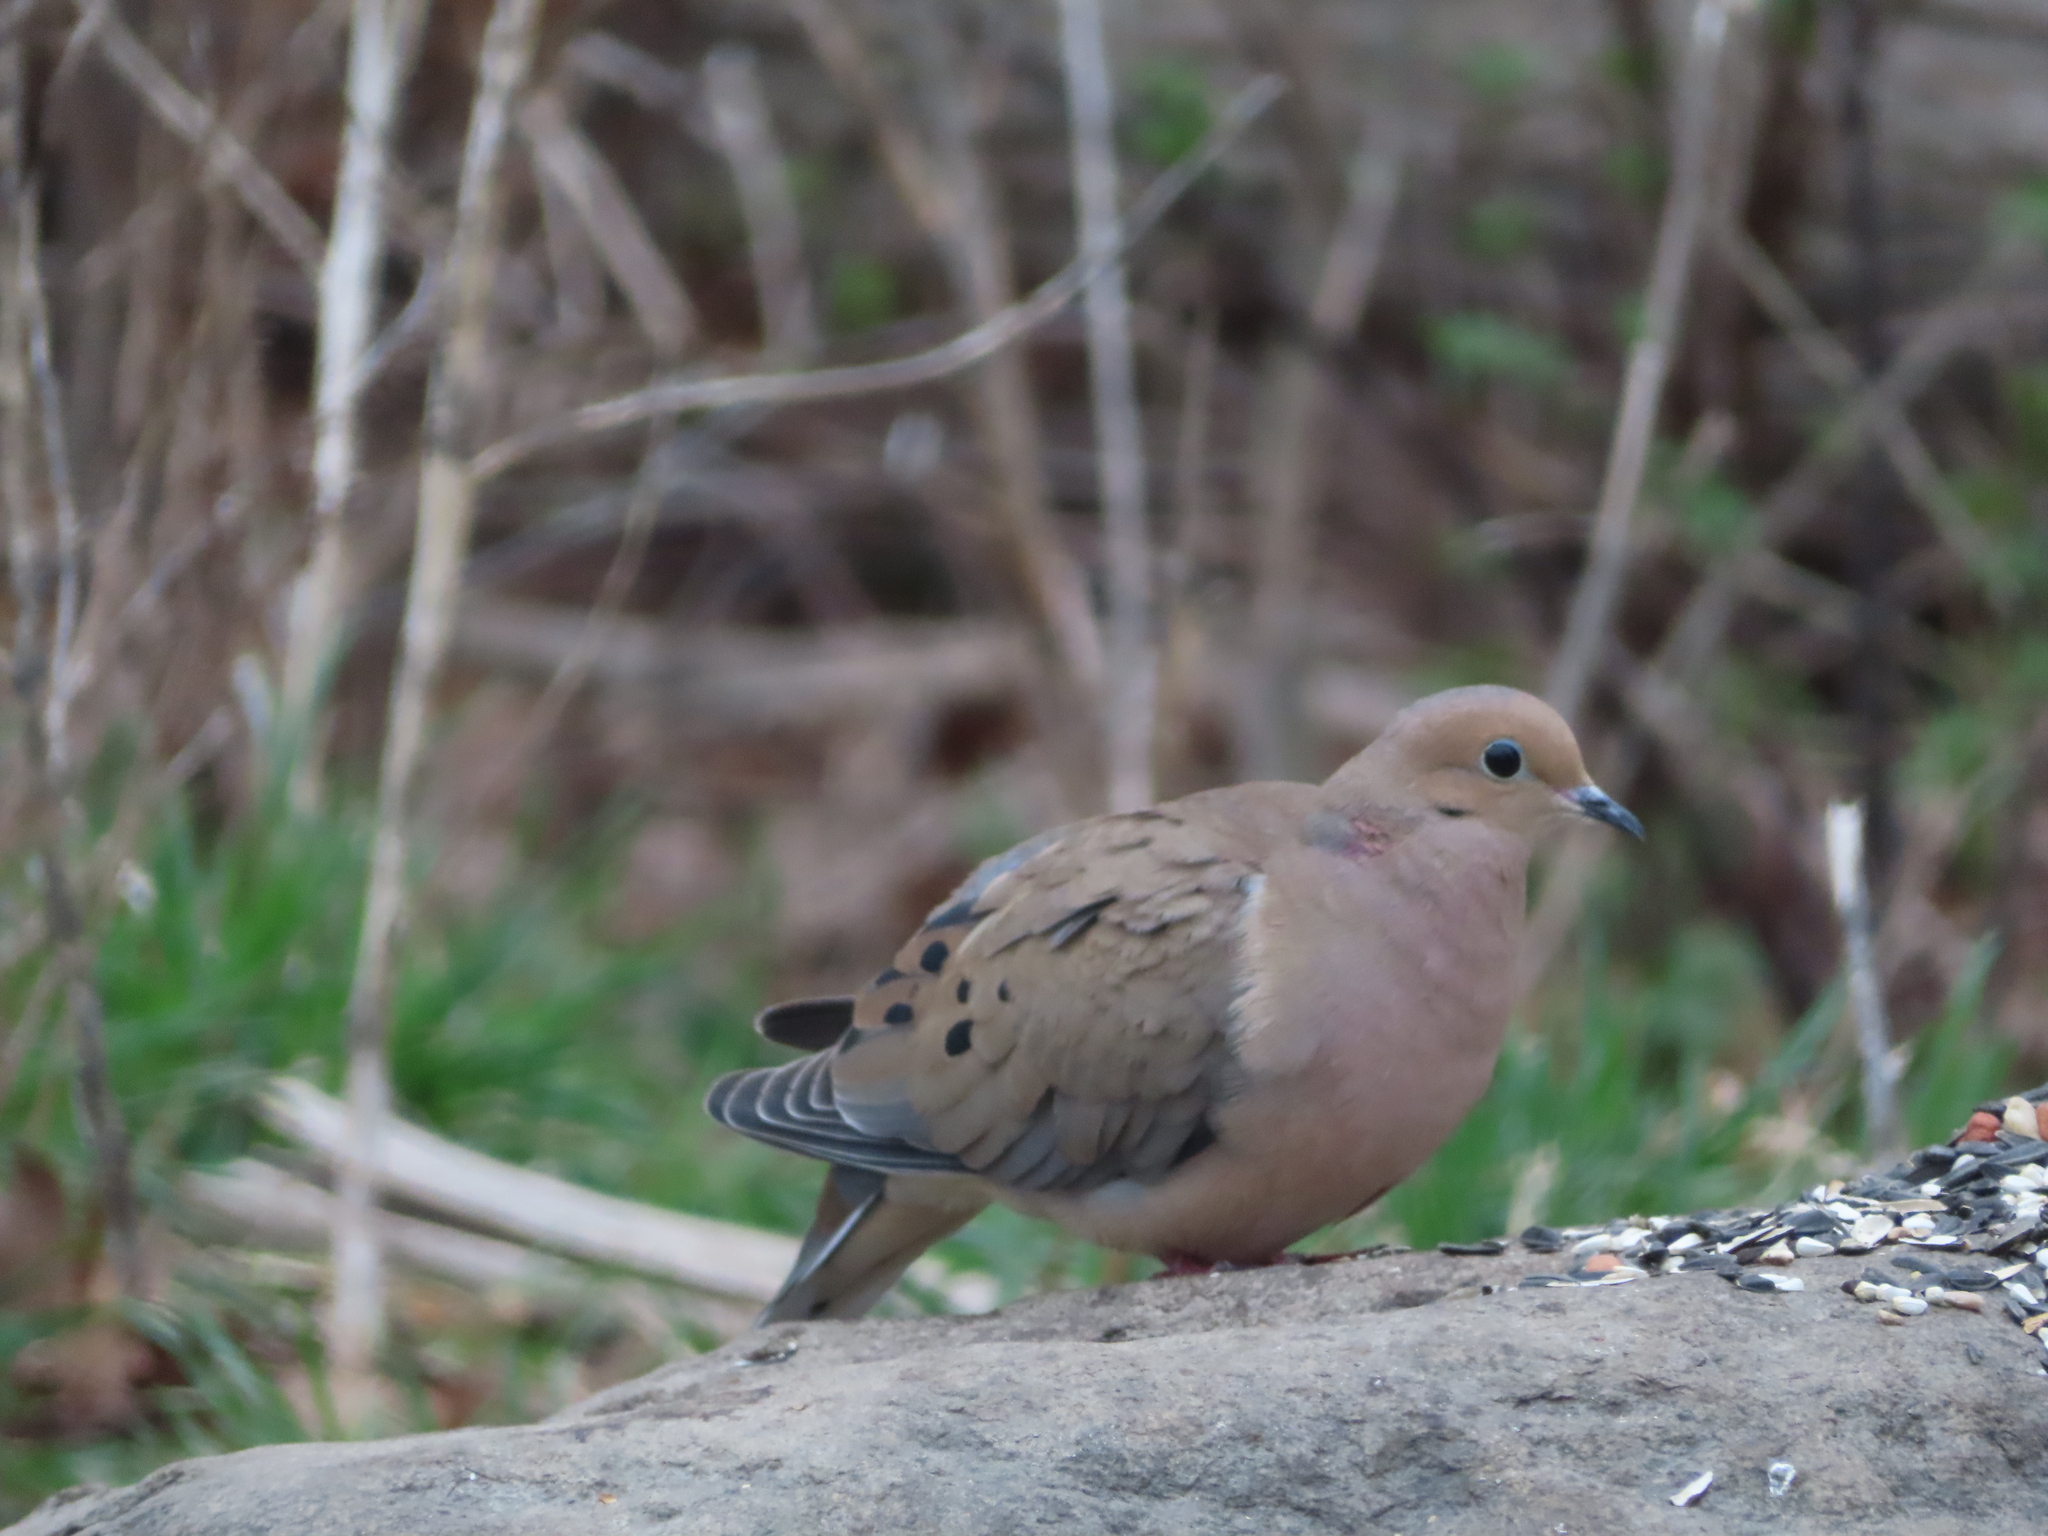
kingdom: Animalia
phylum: Chordata
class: Aves
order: Columbiformes
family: Columbidae
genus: Zenaida
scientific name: Zenaida macroura
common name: Mourning dove
